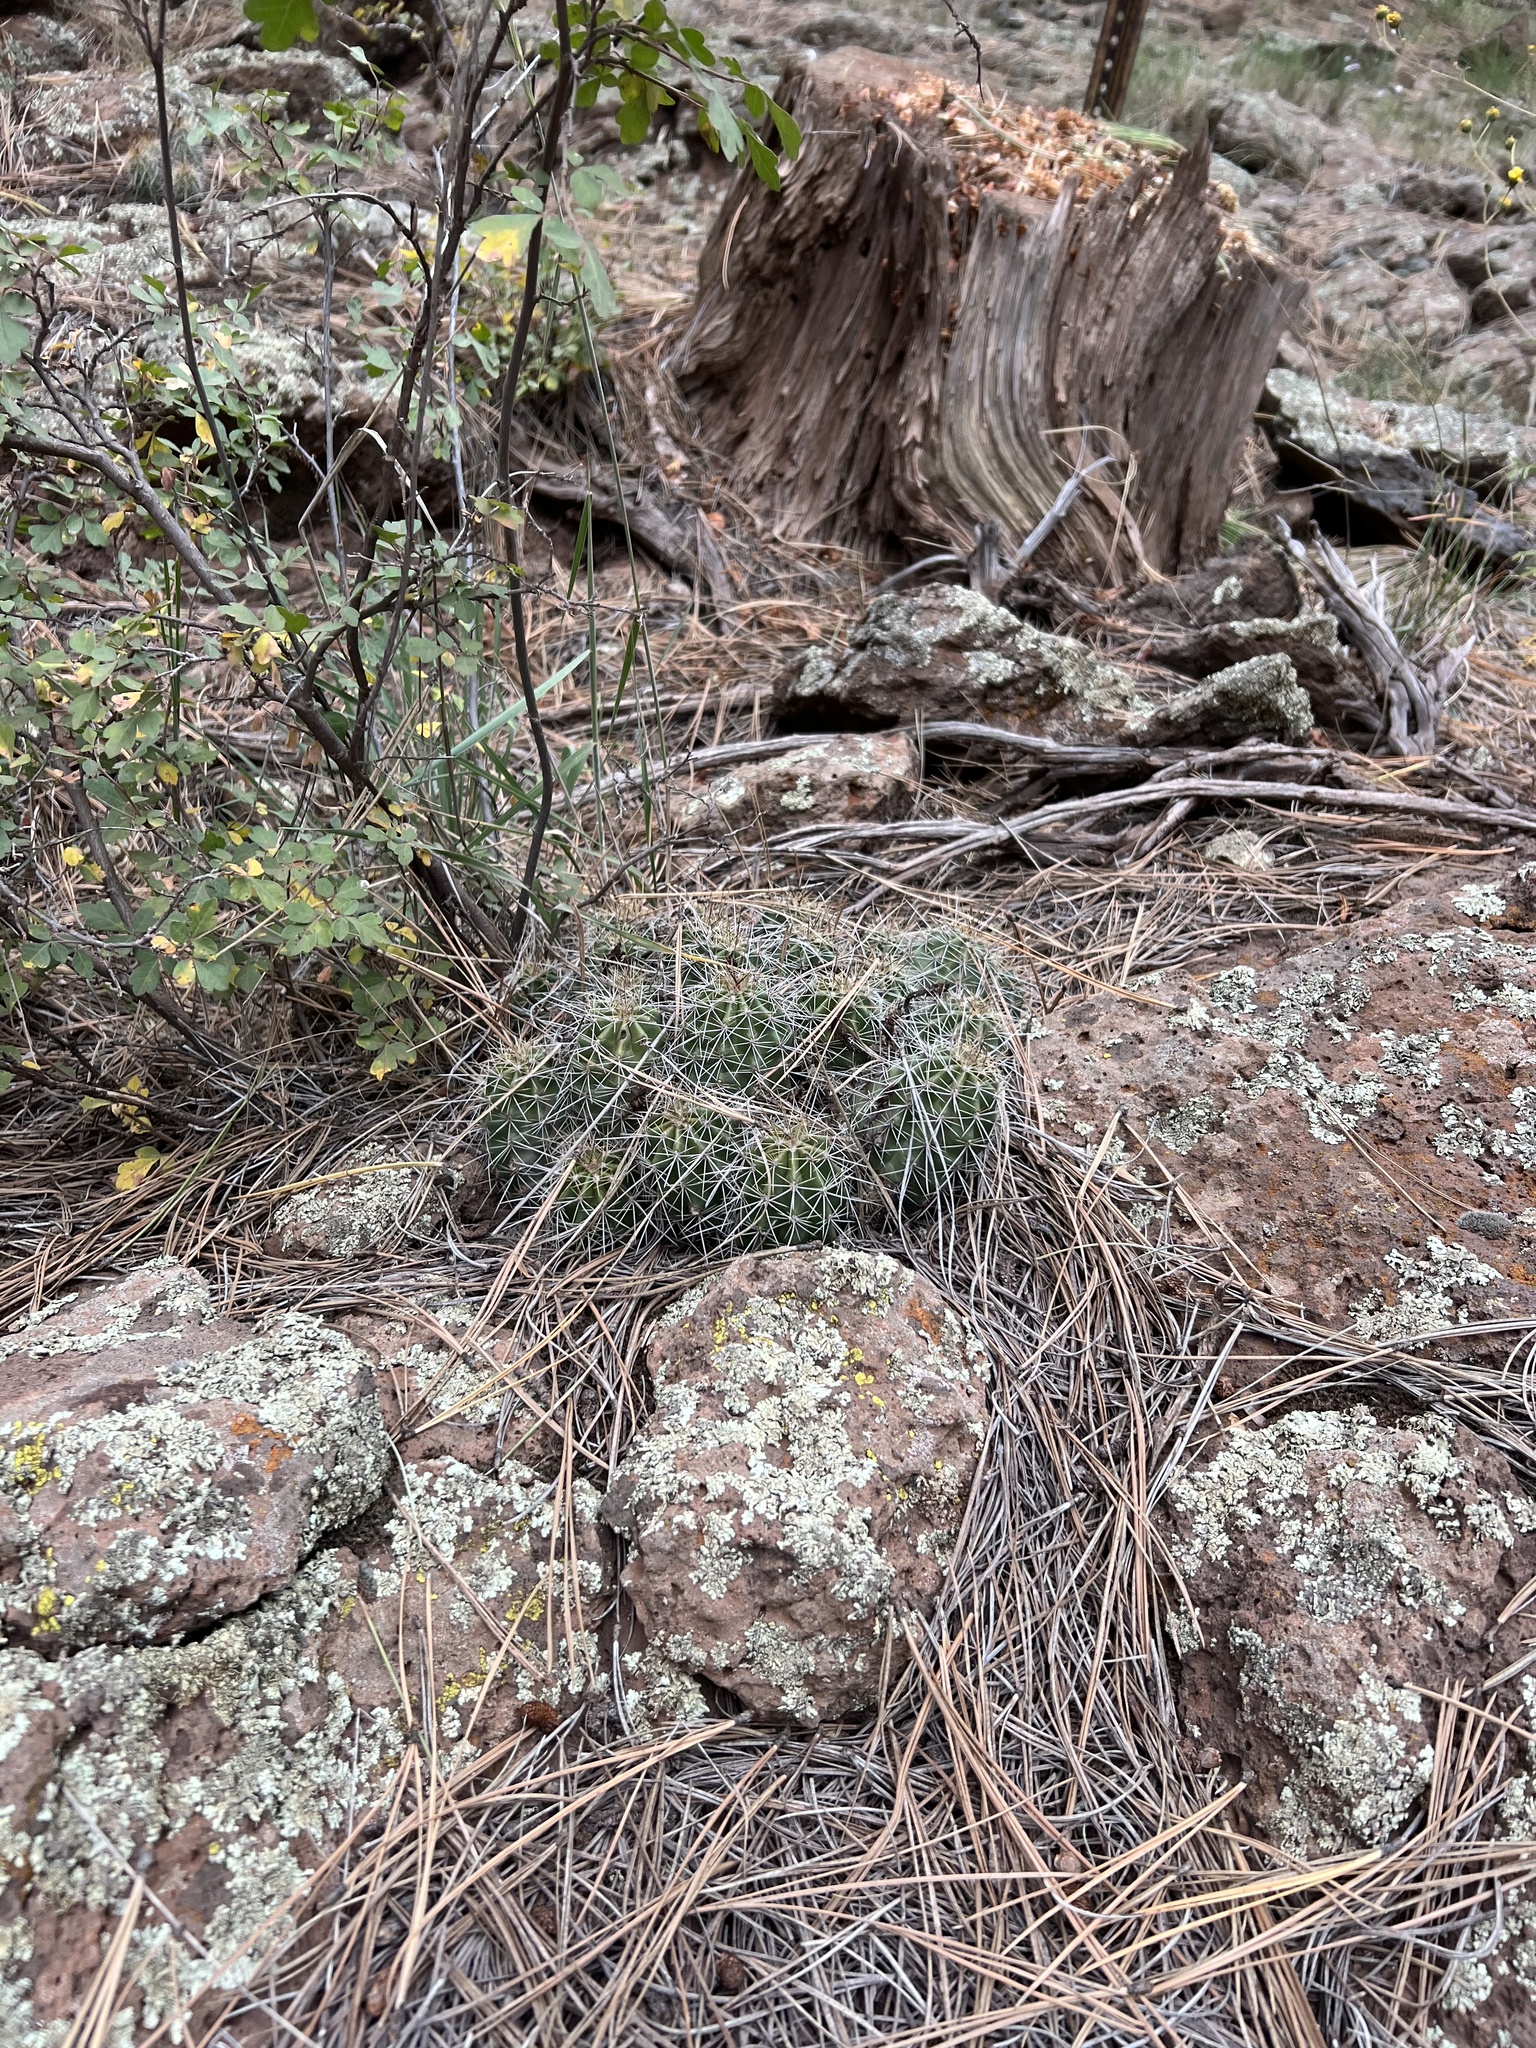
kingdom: Plantae
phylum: Tracheophyta
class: Magnoliopsida
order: Caryophyllales
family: Cactaceae
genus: Echinocereus
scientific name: Echinocereus bakeri
